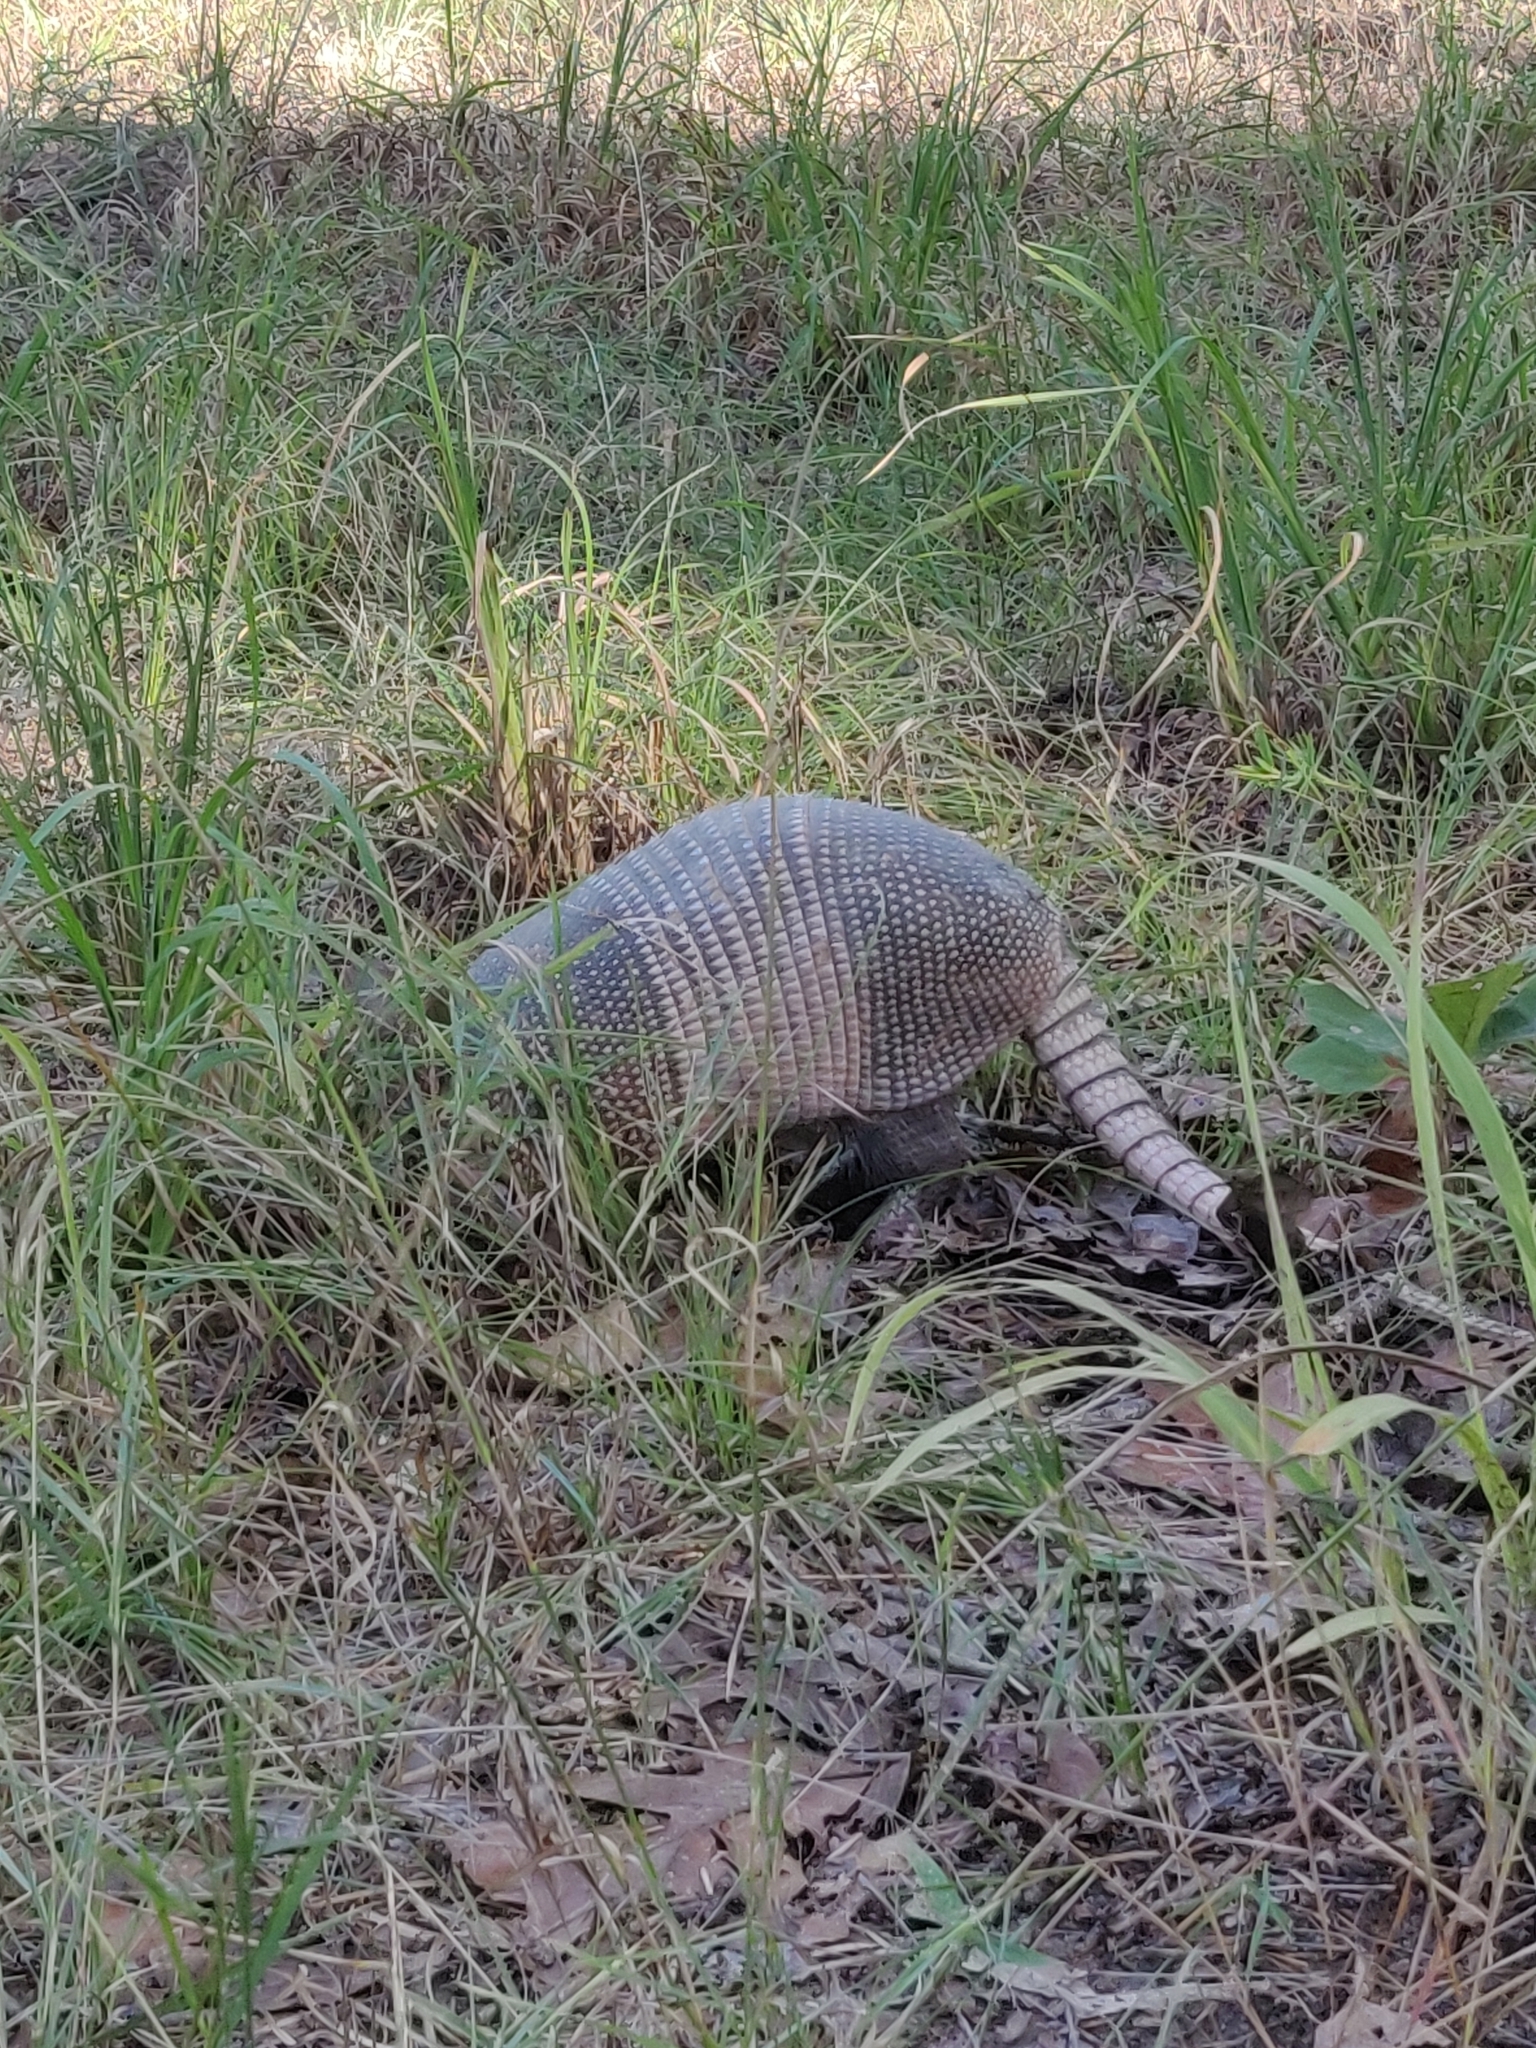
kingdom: Animalia
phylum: Chordata
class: Mammalia
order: Cingulata
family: Dasypodidae
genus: Dasypus
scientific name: Dasypus novemcinctus
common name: Nine-banded armadillo
